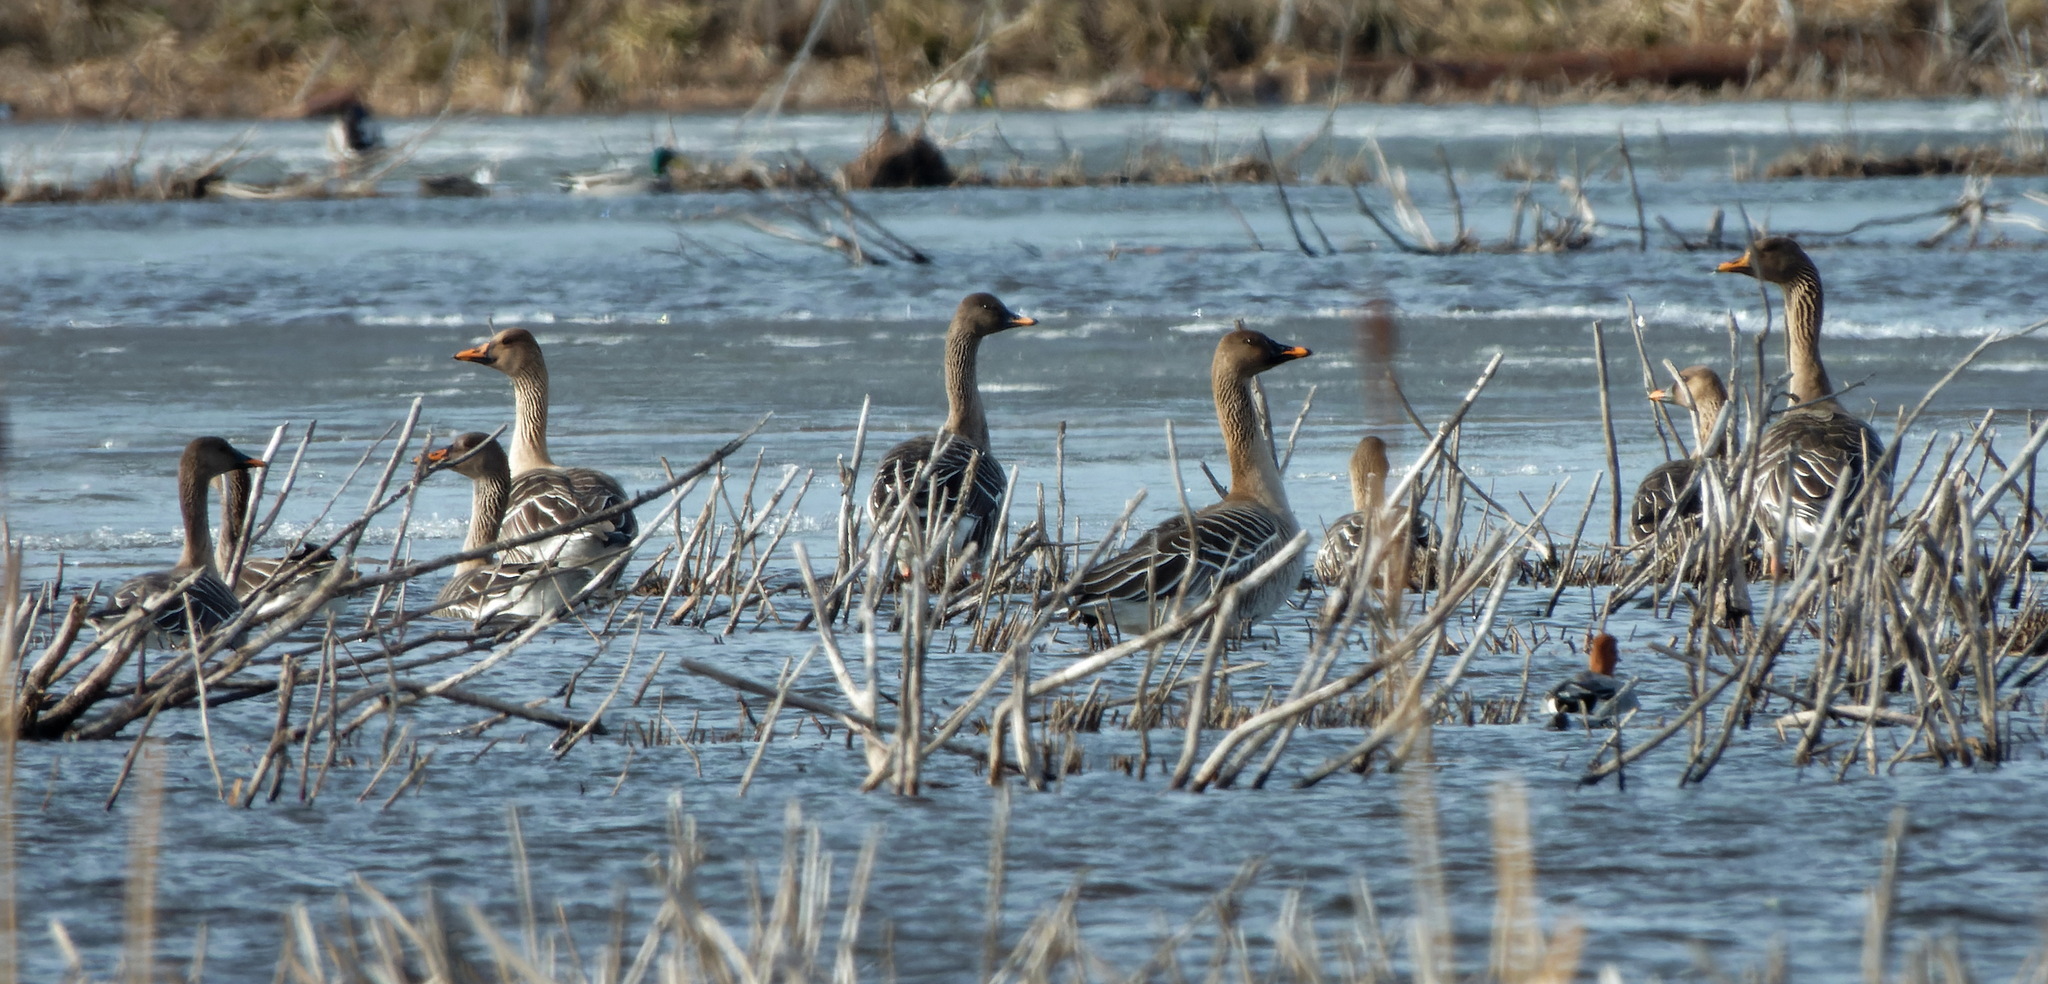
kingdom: Animalia
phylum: Chordata
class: Aves
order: Anseriformes
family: Anatidae
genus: Anser
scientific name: Anser fabalis
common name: Bean goose
